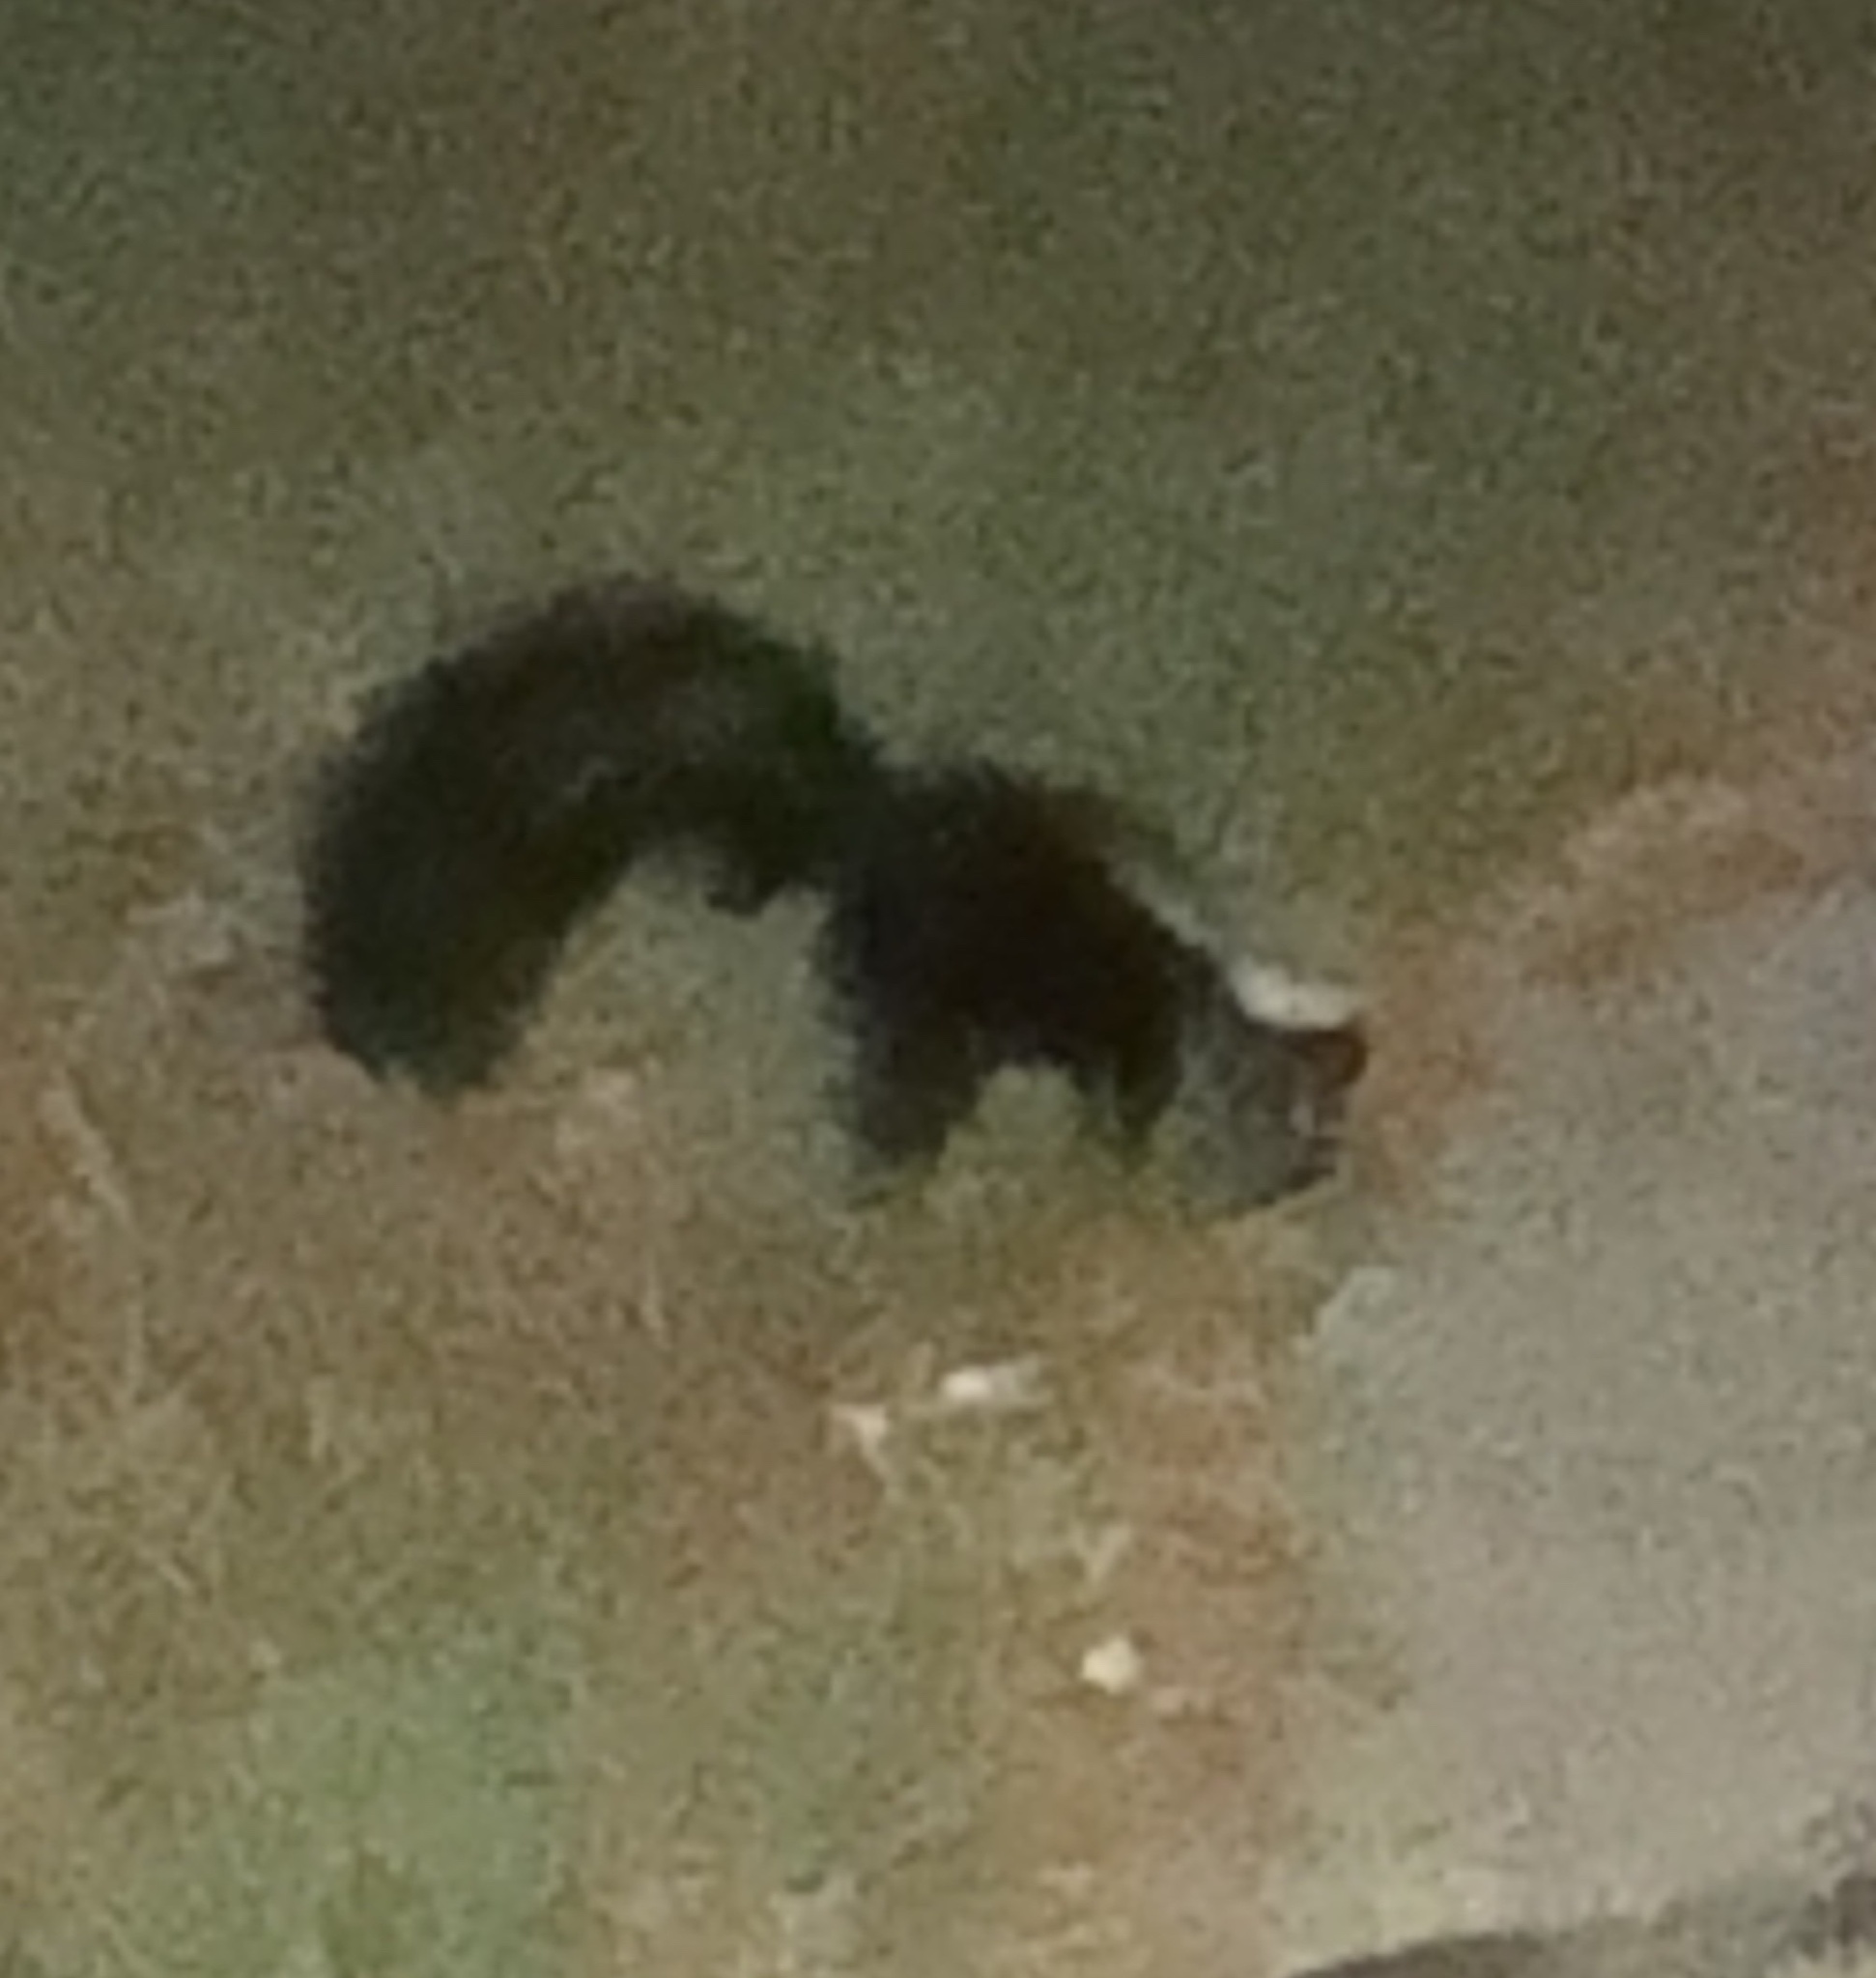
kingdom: Animalia
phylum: Chordata
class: Mammalia
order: Carnivora
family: Mephitidae
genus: Mephitis
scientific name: Mephitis mephitis
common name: Striped skunk
